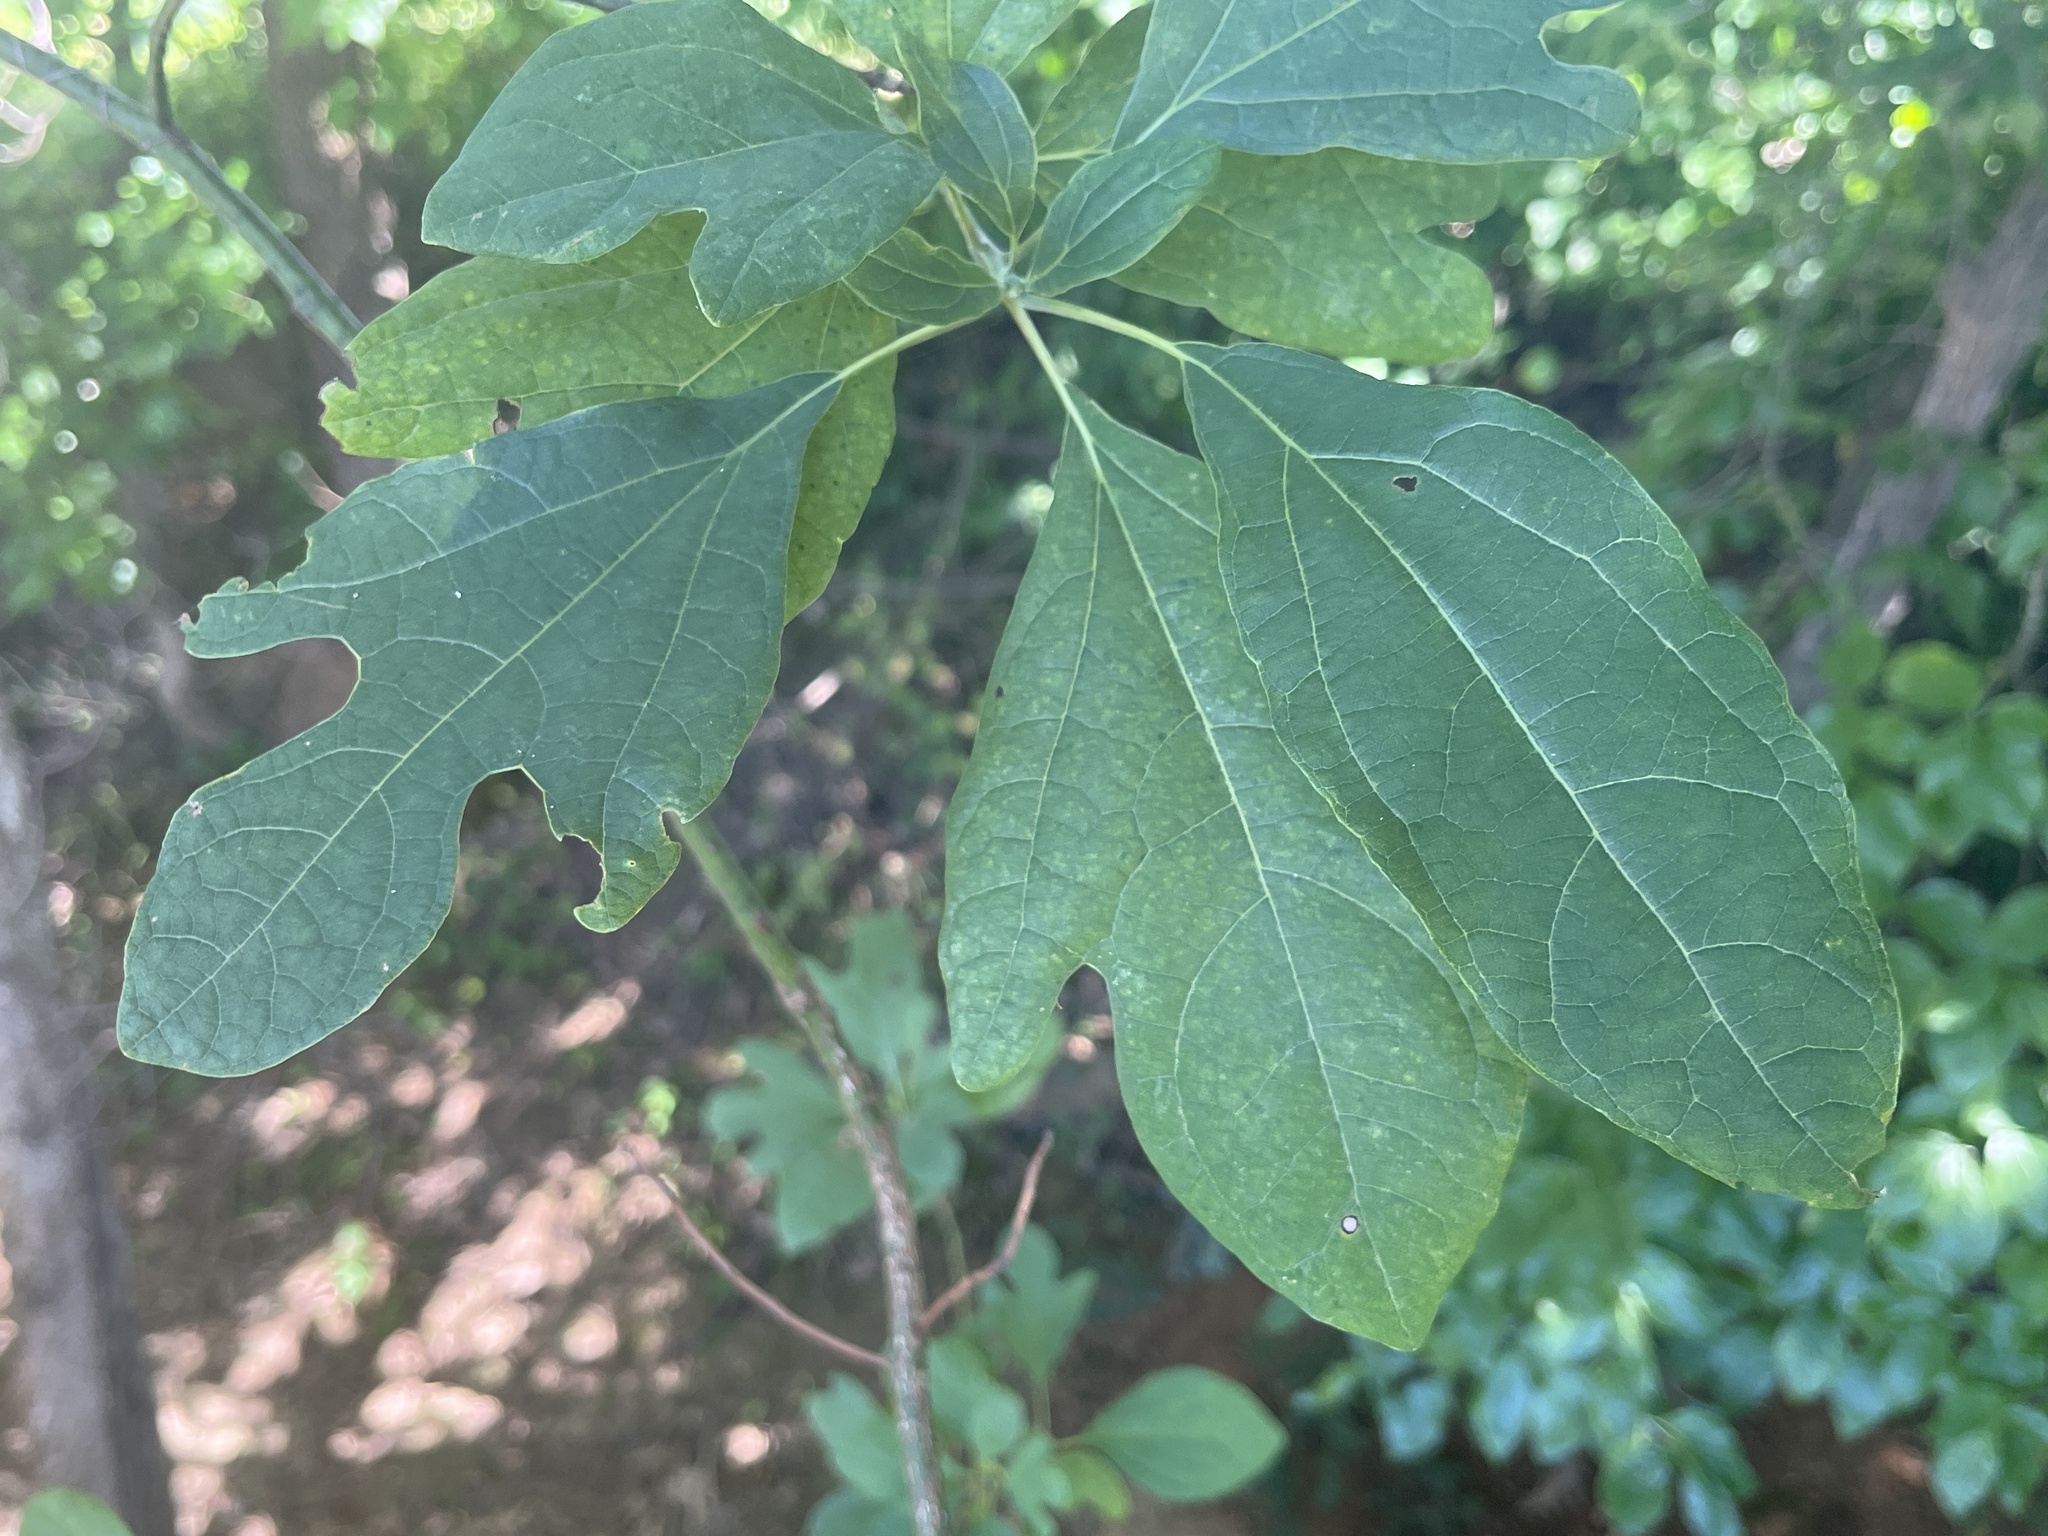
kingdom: Plantae
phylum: Tracheophyta
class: Magnoliopsida
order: Laurales
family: Lauraceae
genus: Sassafras
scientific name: Sassafras albidum
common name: Sassafras
